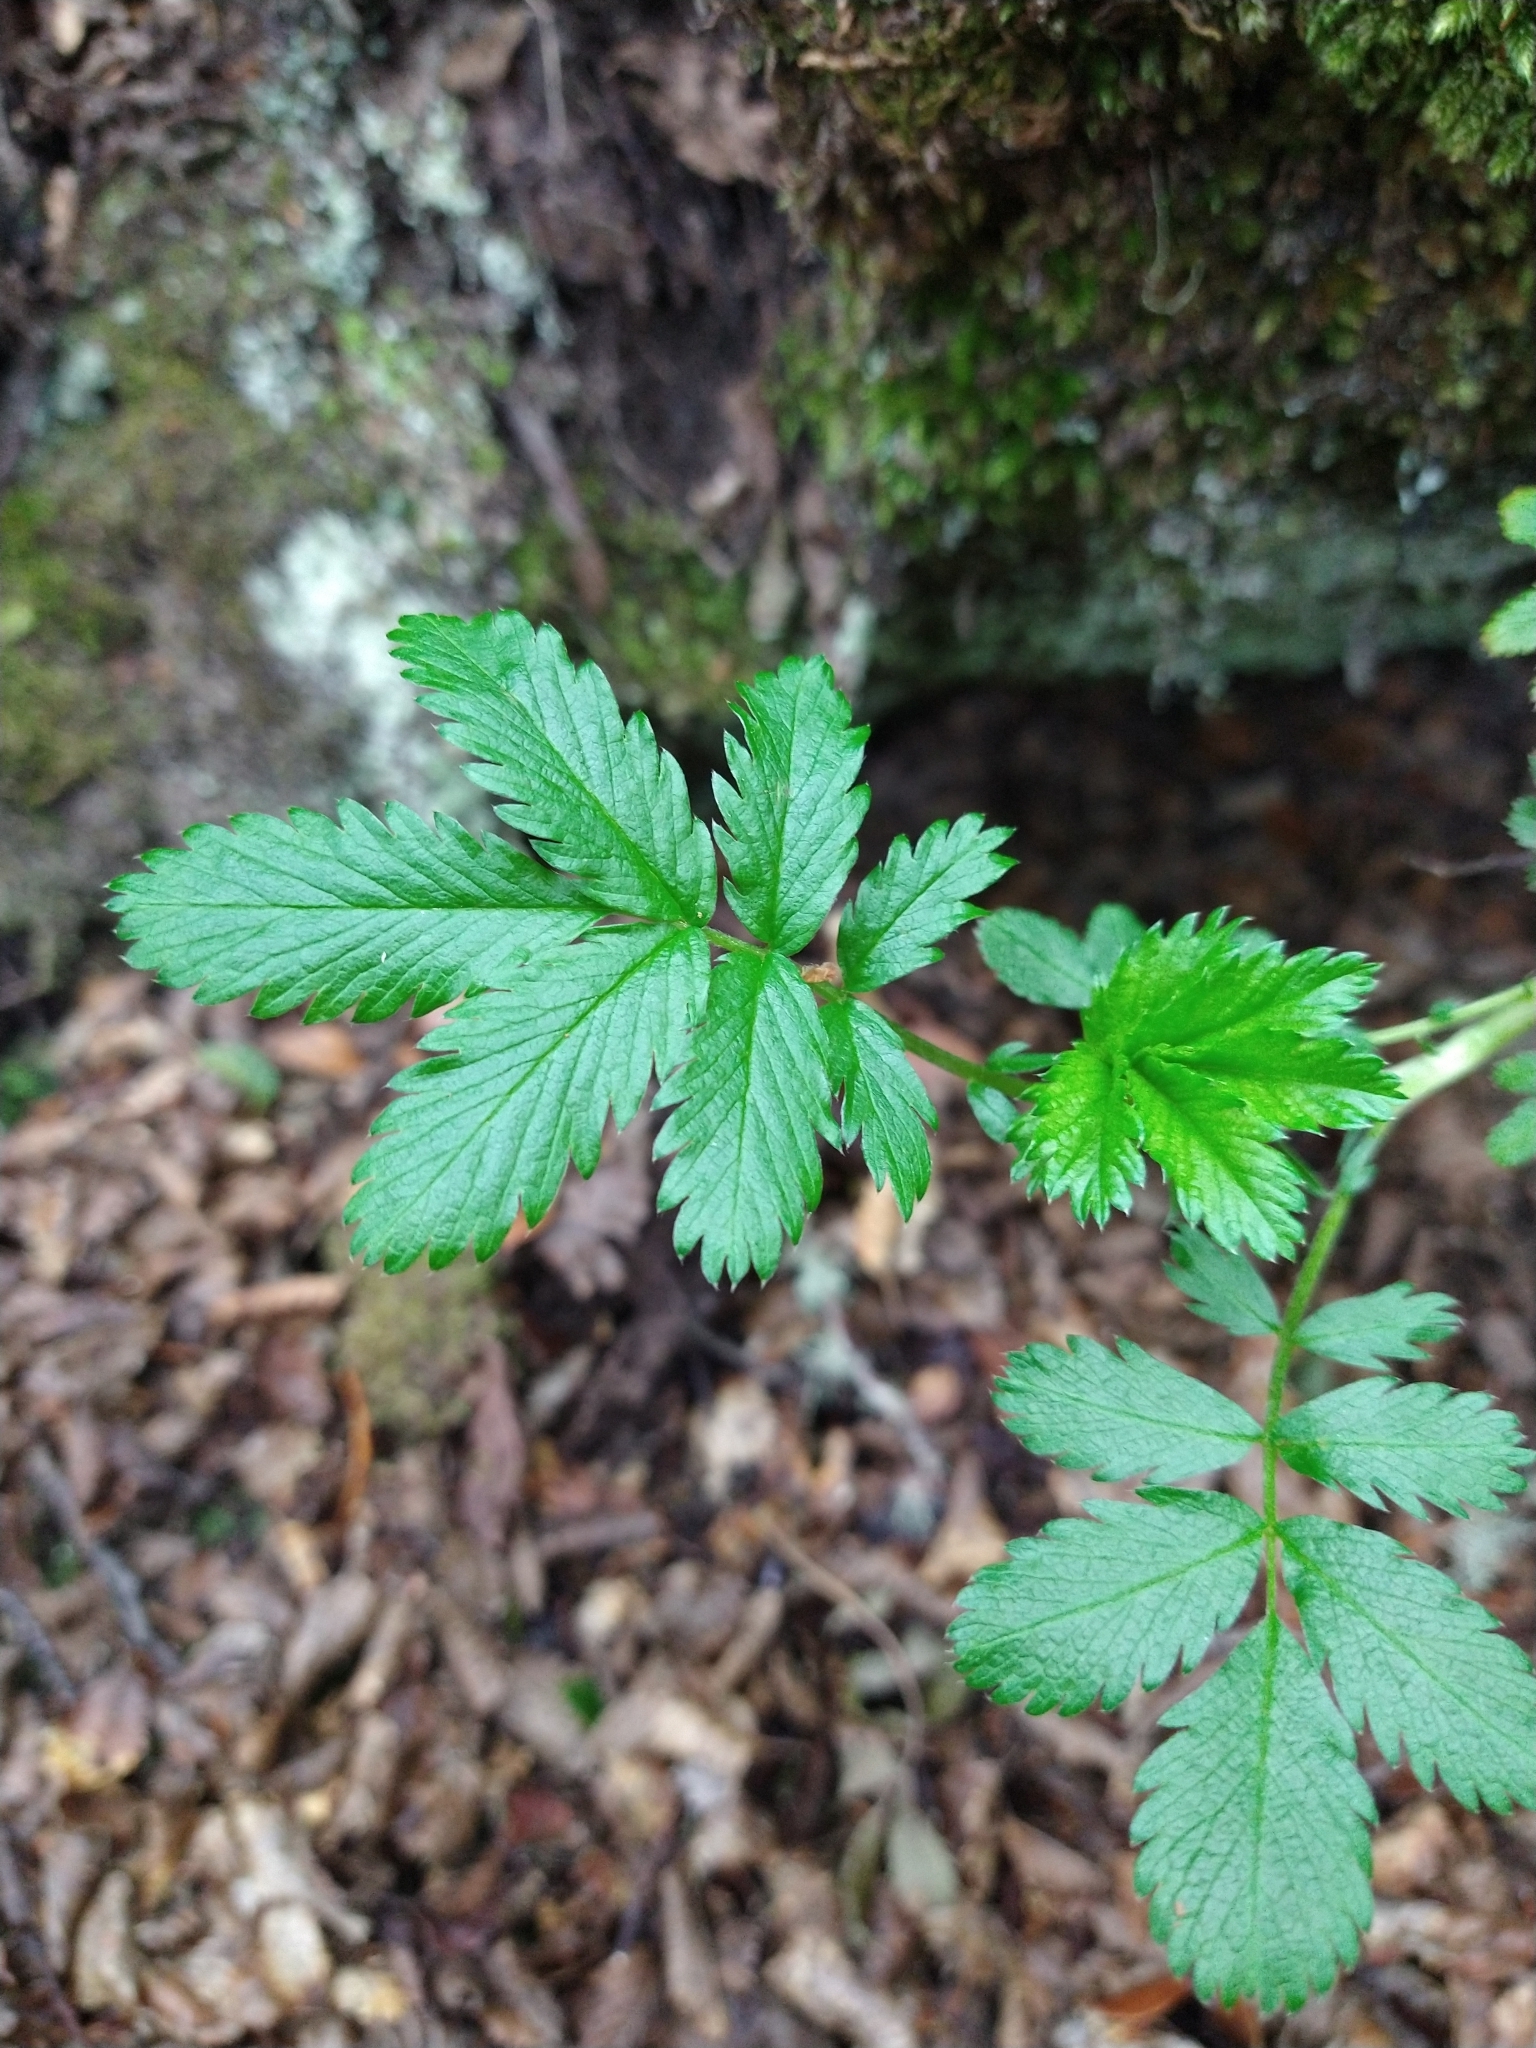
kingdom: Plantae
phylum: Tracheophyta
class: Magnoliopsida
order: Rosales
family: Rosaceae
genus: Acaena
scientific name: Acaena ovalifolia
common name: Two-spined acaena
